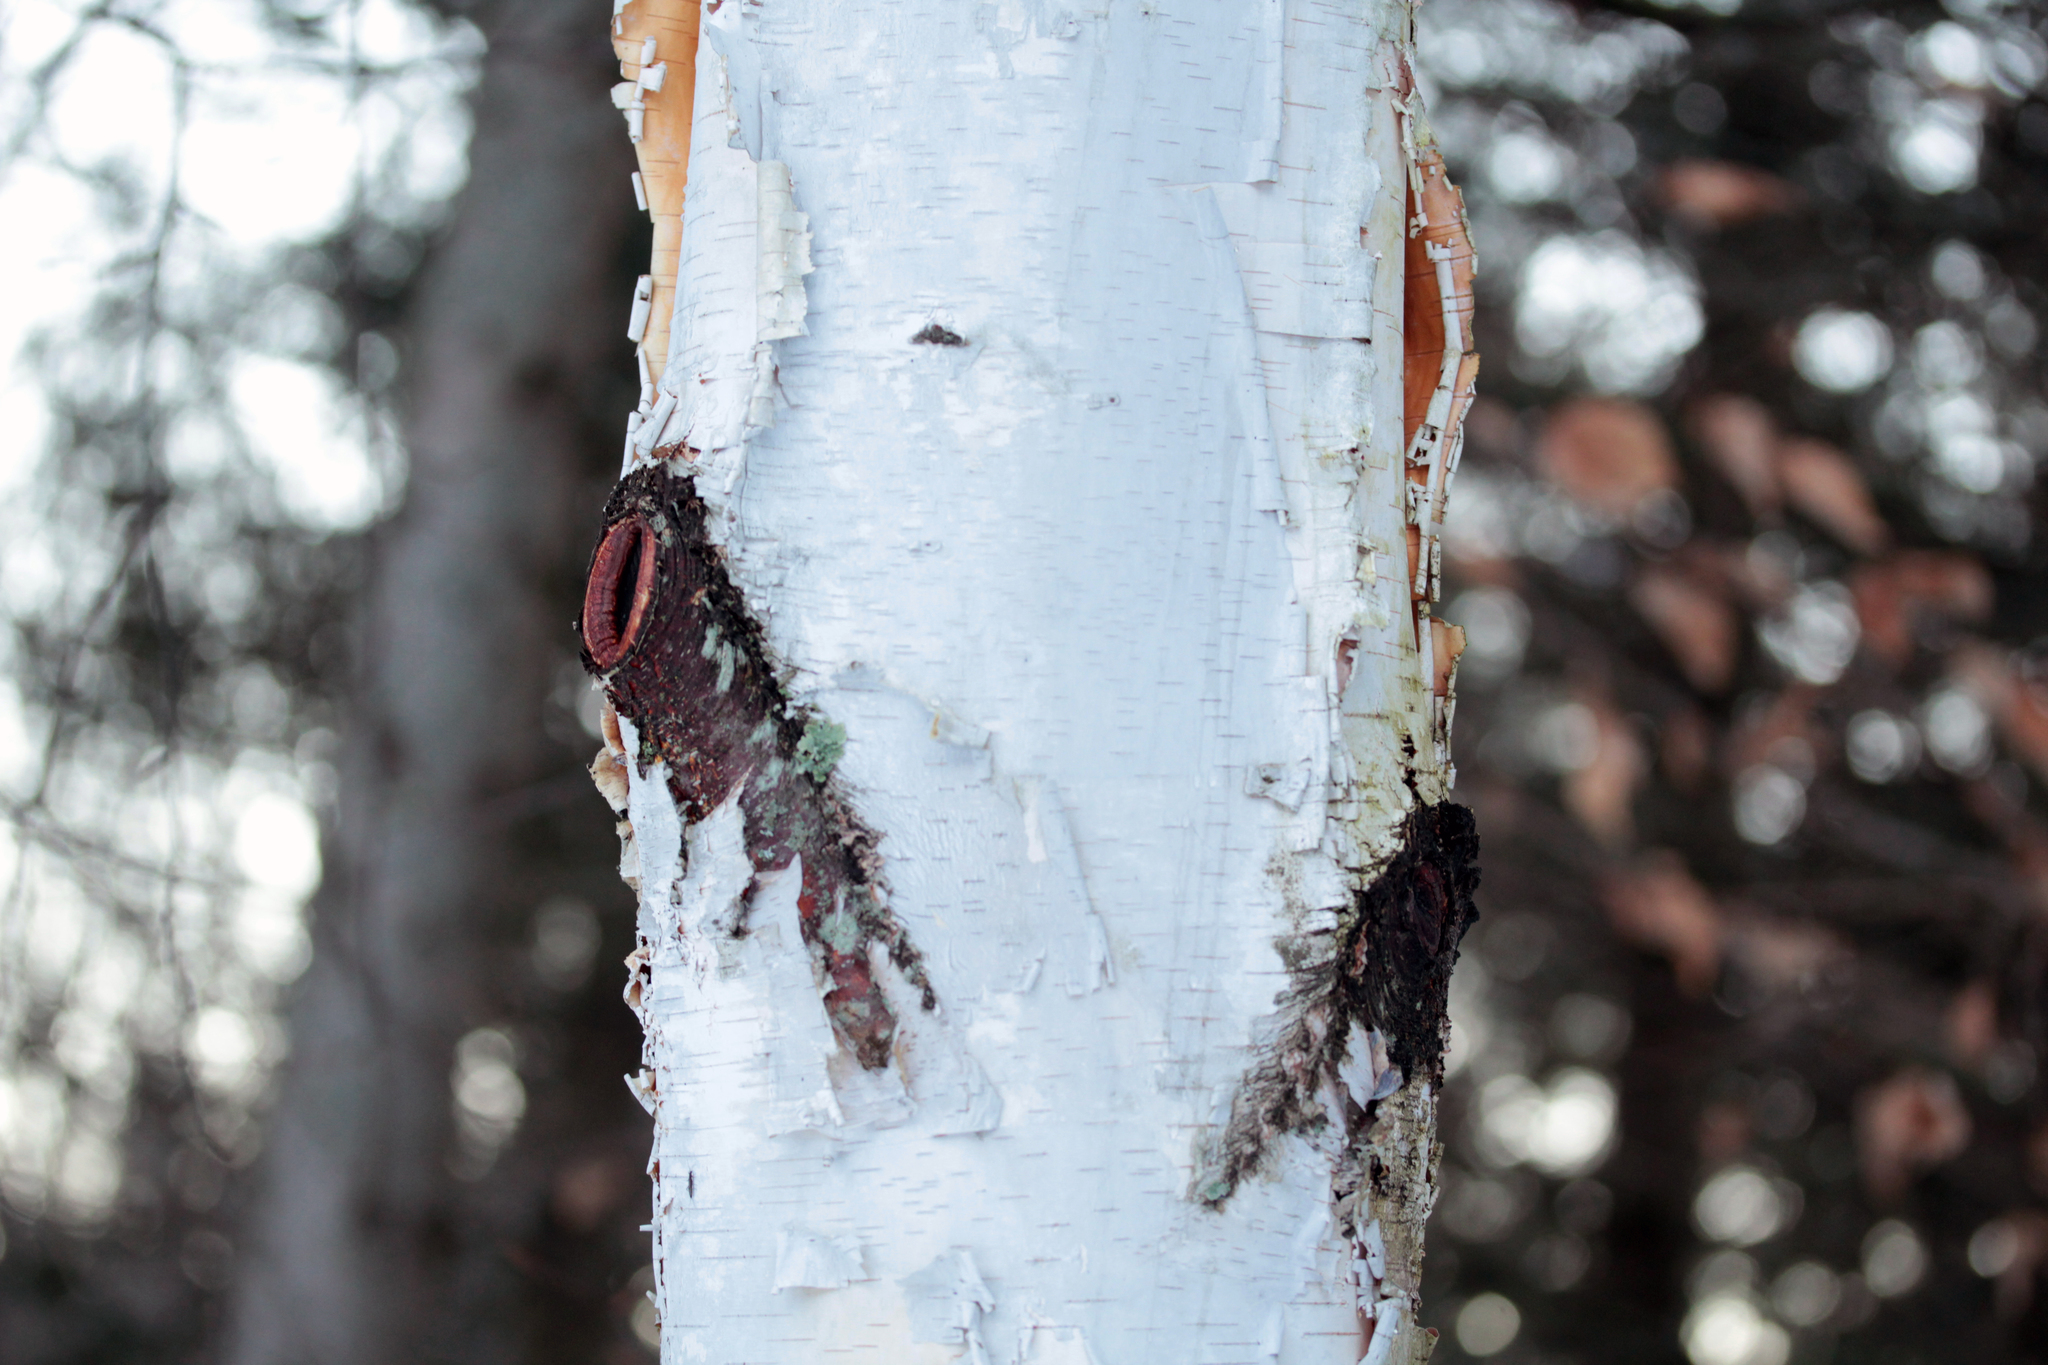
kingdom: Plantae
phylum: Tracheophyta
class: Magnoliopsida
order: Fagales
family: Betulaceae
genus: Betula
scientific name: Betula papyrifera
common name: Paper birch
